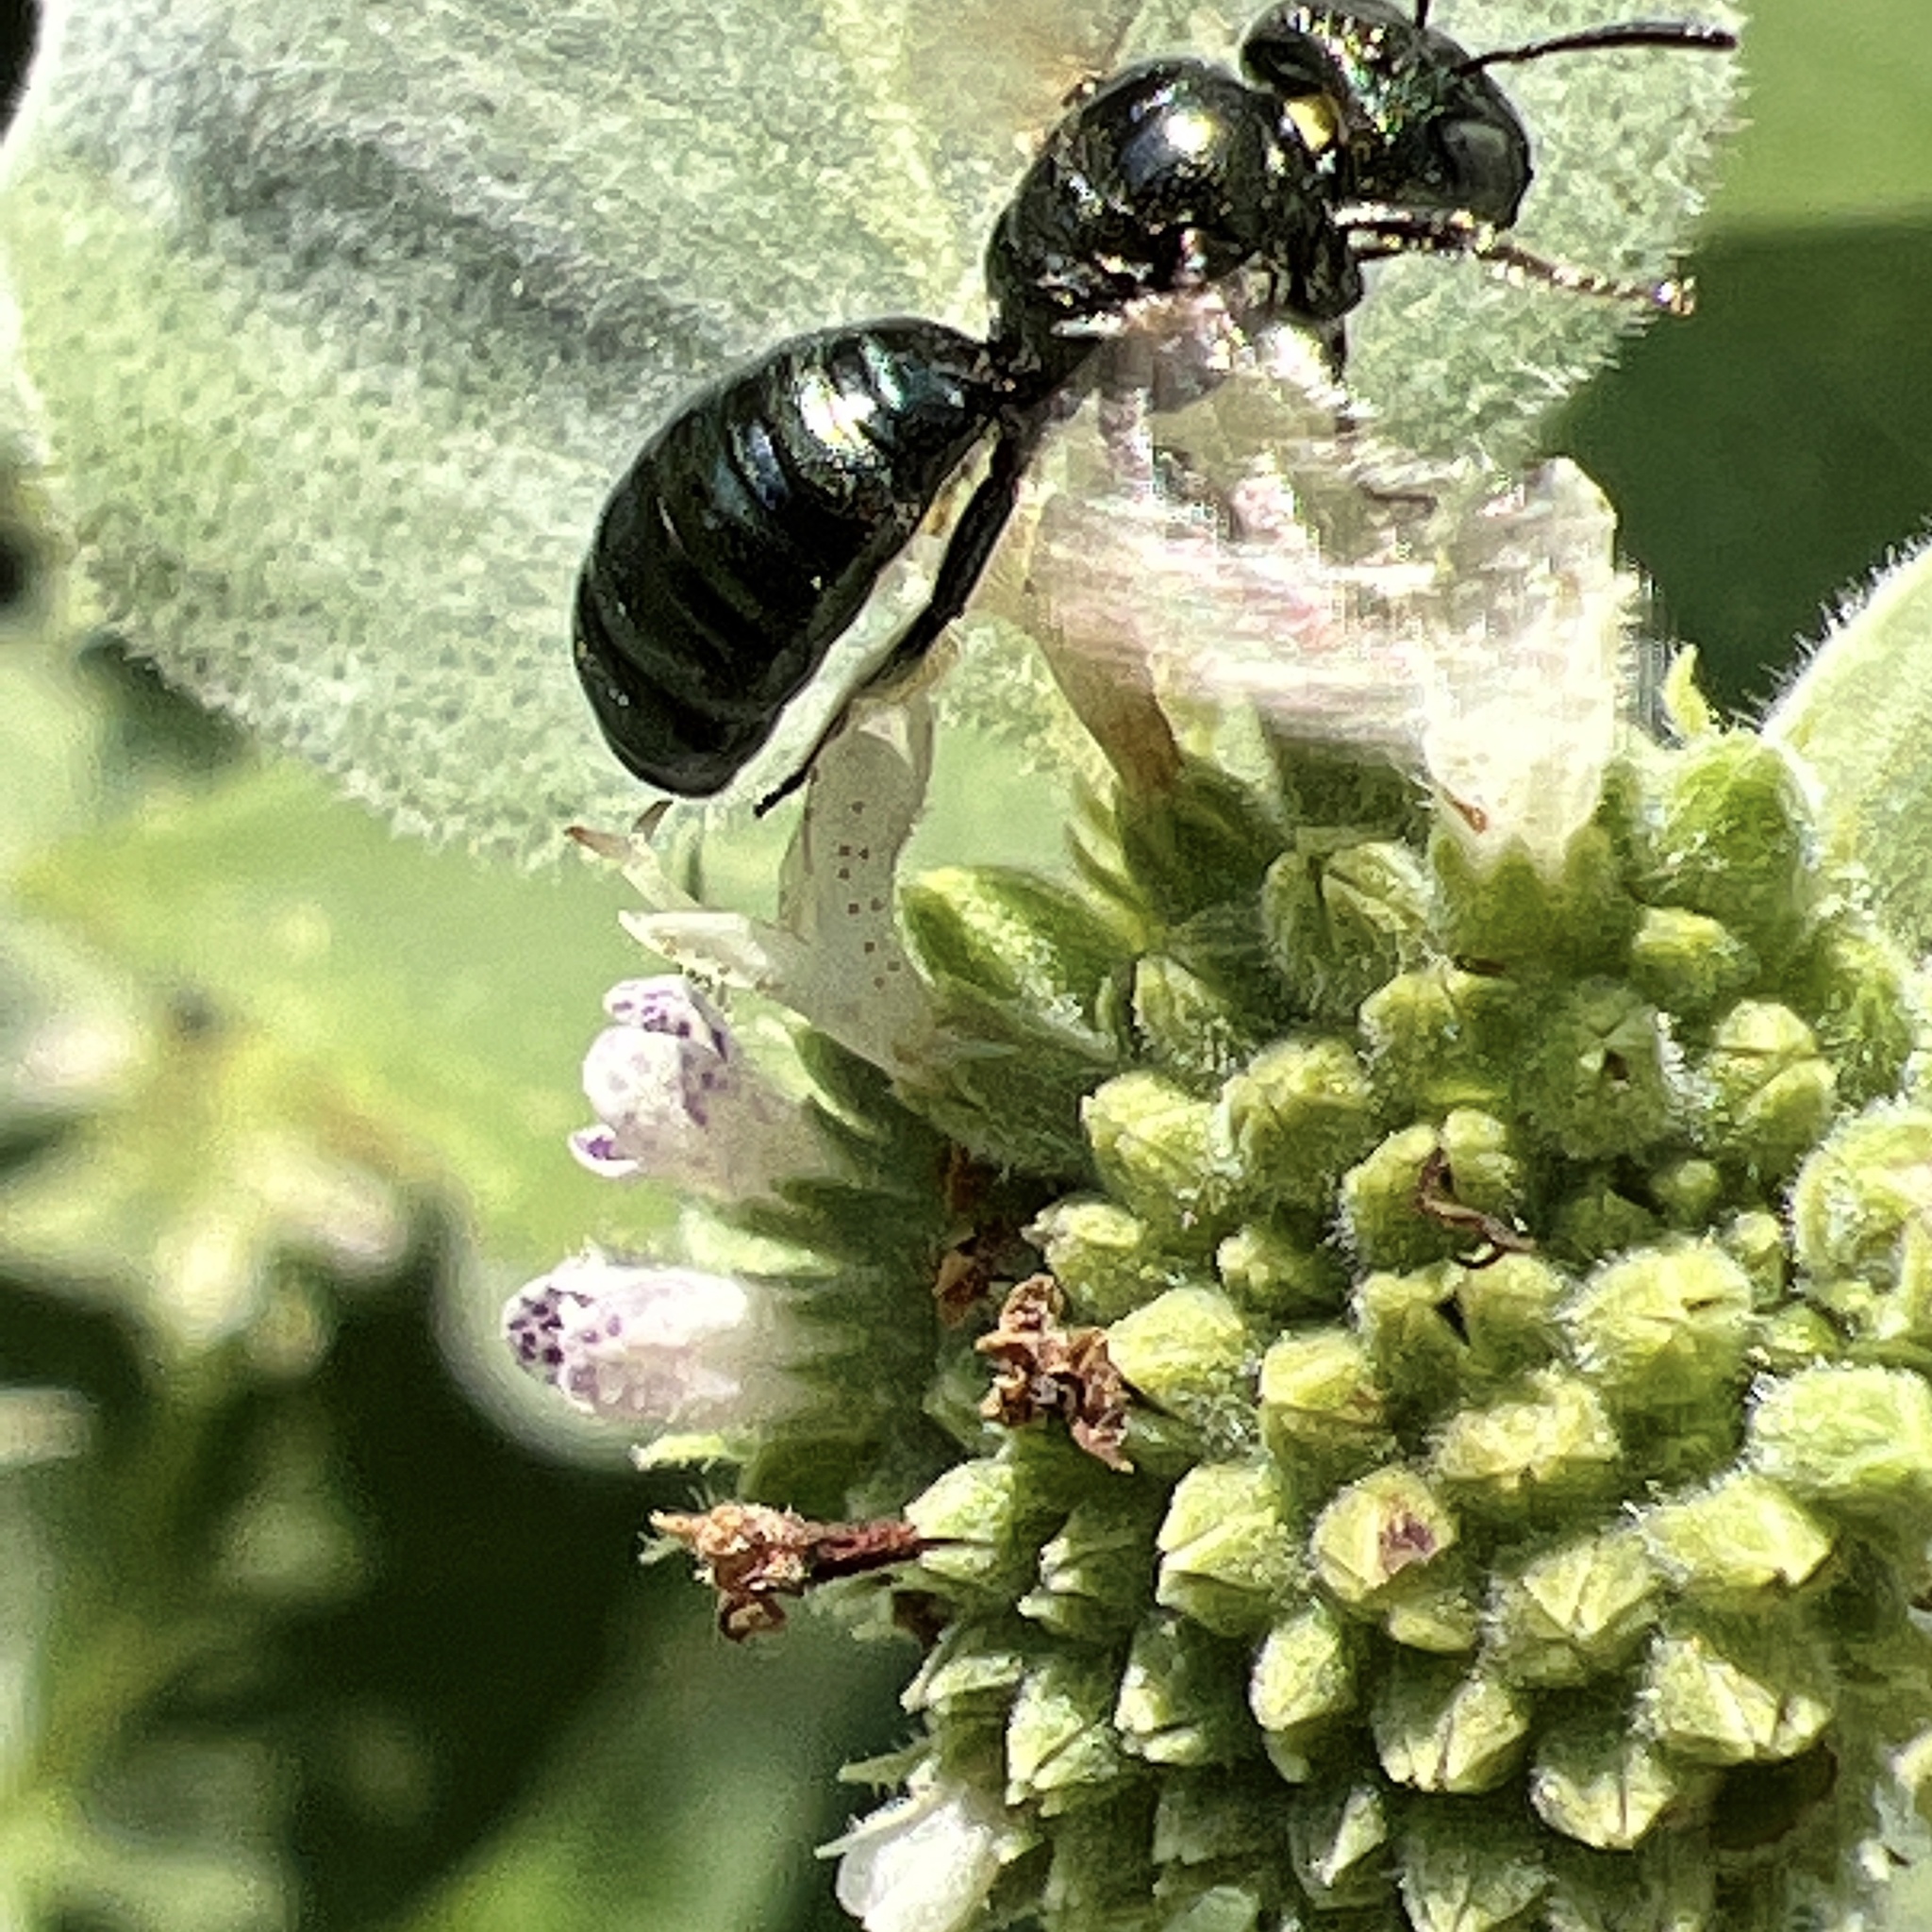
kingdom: Animalia
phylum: Arthropoda
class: Insecta
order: Hymenoptera
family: Apidae
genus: Zadontomerus
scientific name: Zadontomerus
